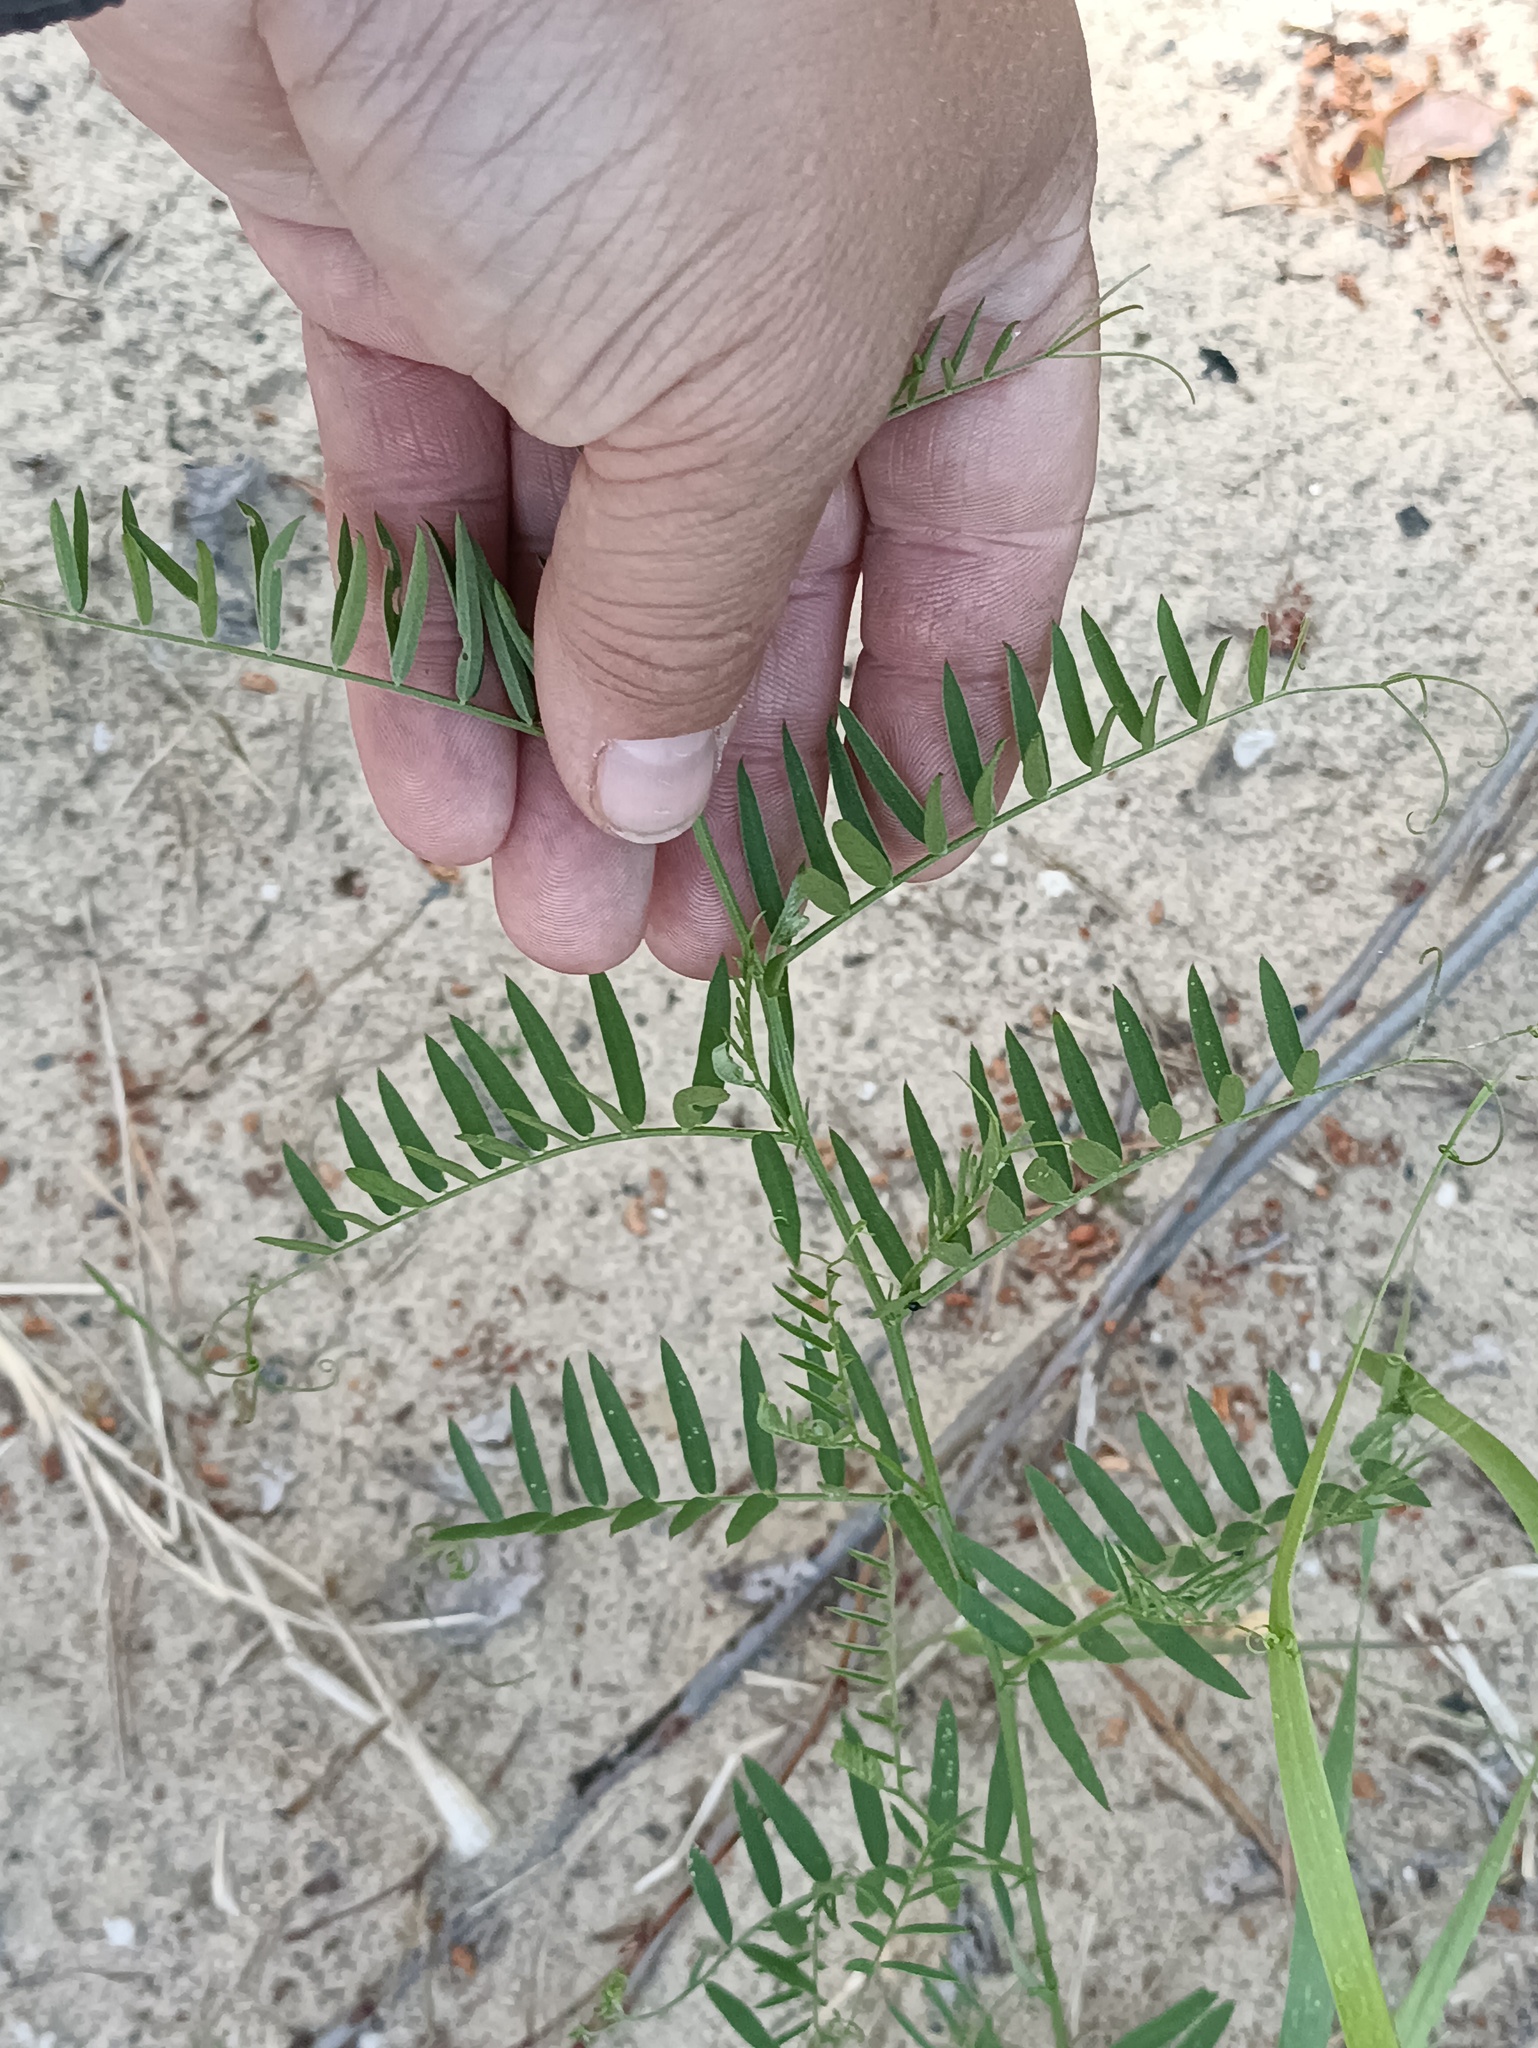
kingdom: Plantae
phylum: Tracheophyta
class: Magnoliopsida
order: Fabales
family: Fabaceae
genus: Vicia
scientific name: Vicia cracca
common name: Bird vetch
